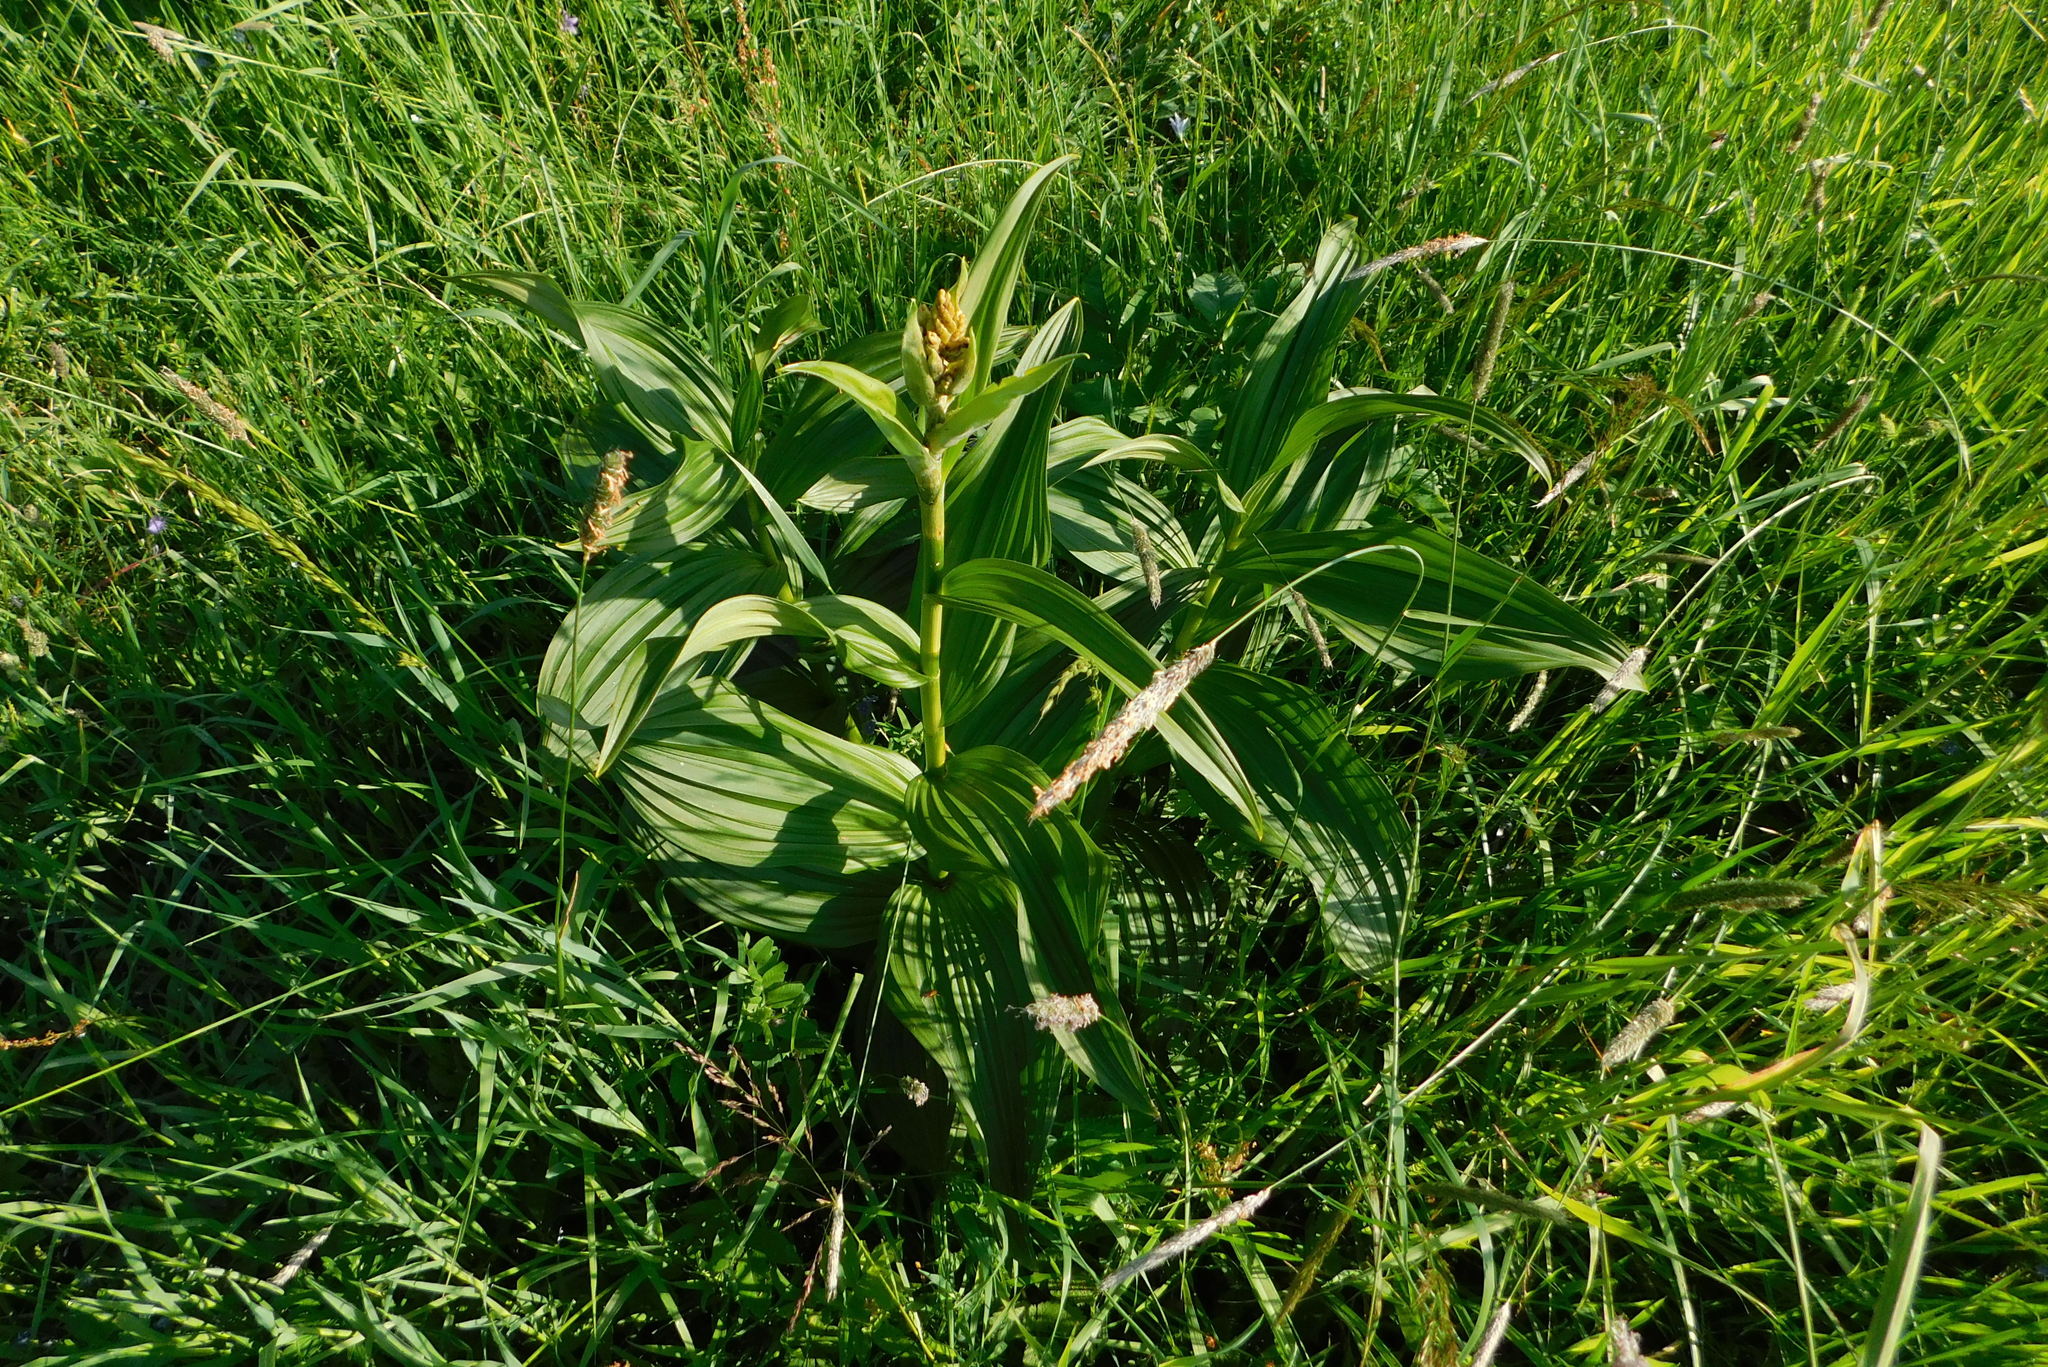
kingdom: Plantae
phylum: Tracheophyta
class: Liliopsida
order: Liliales
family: Melanthiaceae
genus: Veratrum
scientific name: Veratrum lobelianum
